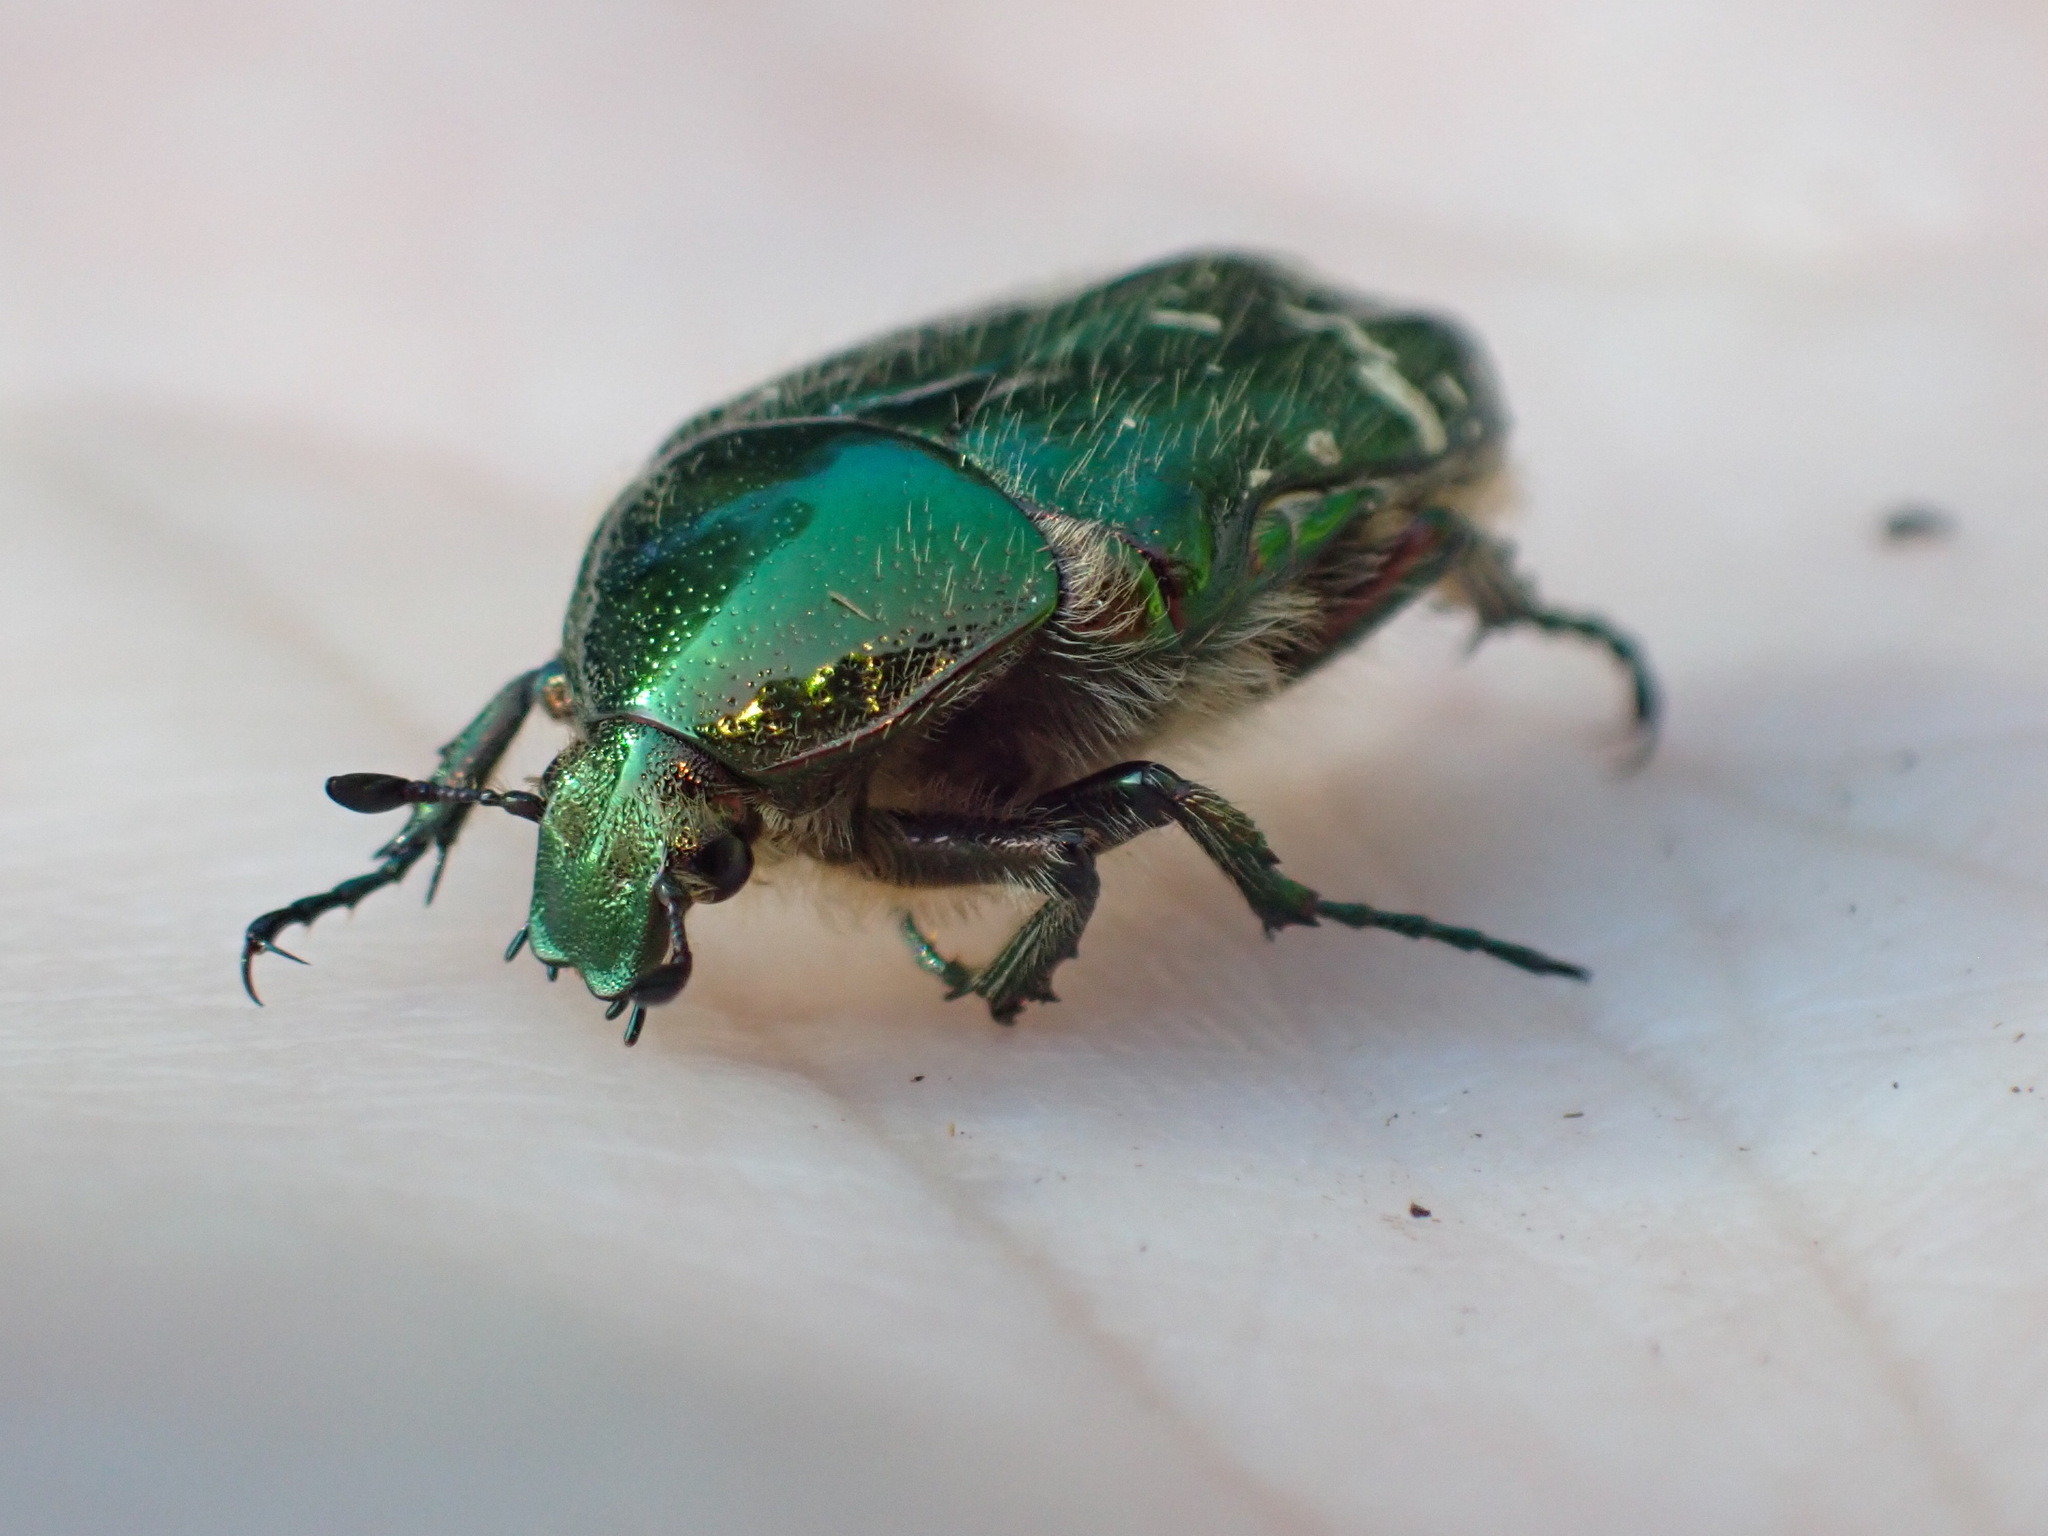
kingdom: Animalia
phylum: Arthropoda
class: Insecta
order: Coleoptera
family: Scarabaeidae
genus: Cetonia
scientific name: Cetonia aurata
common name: Rose chafer
